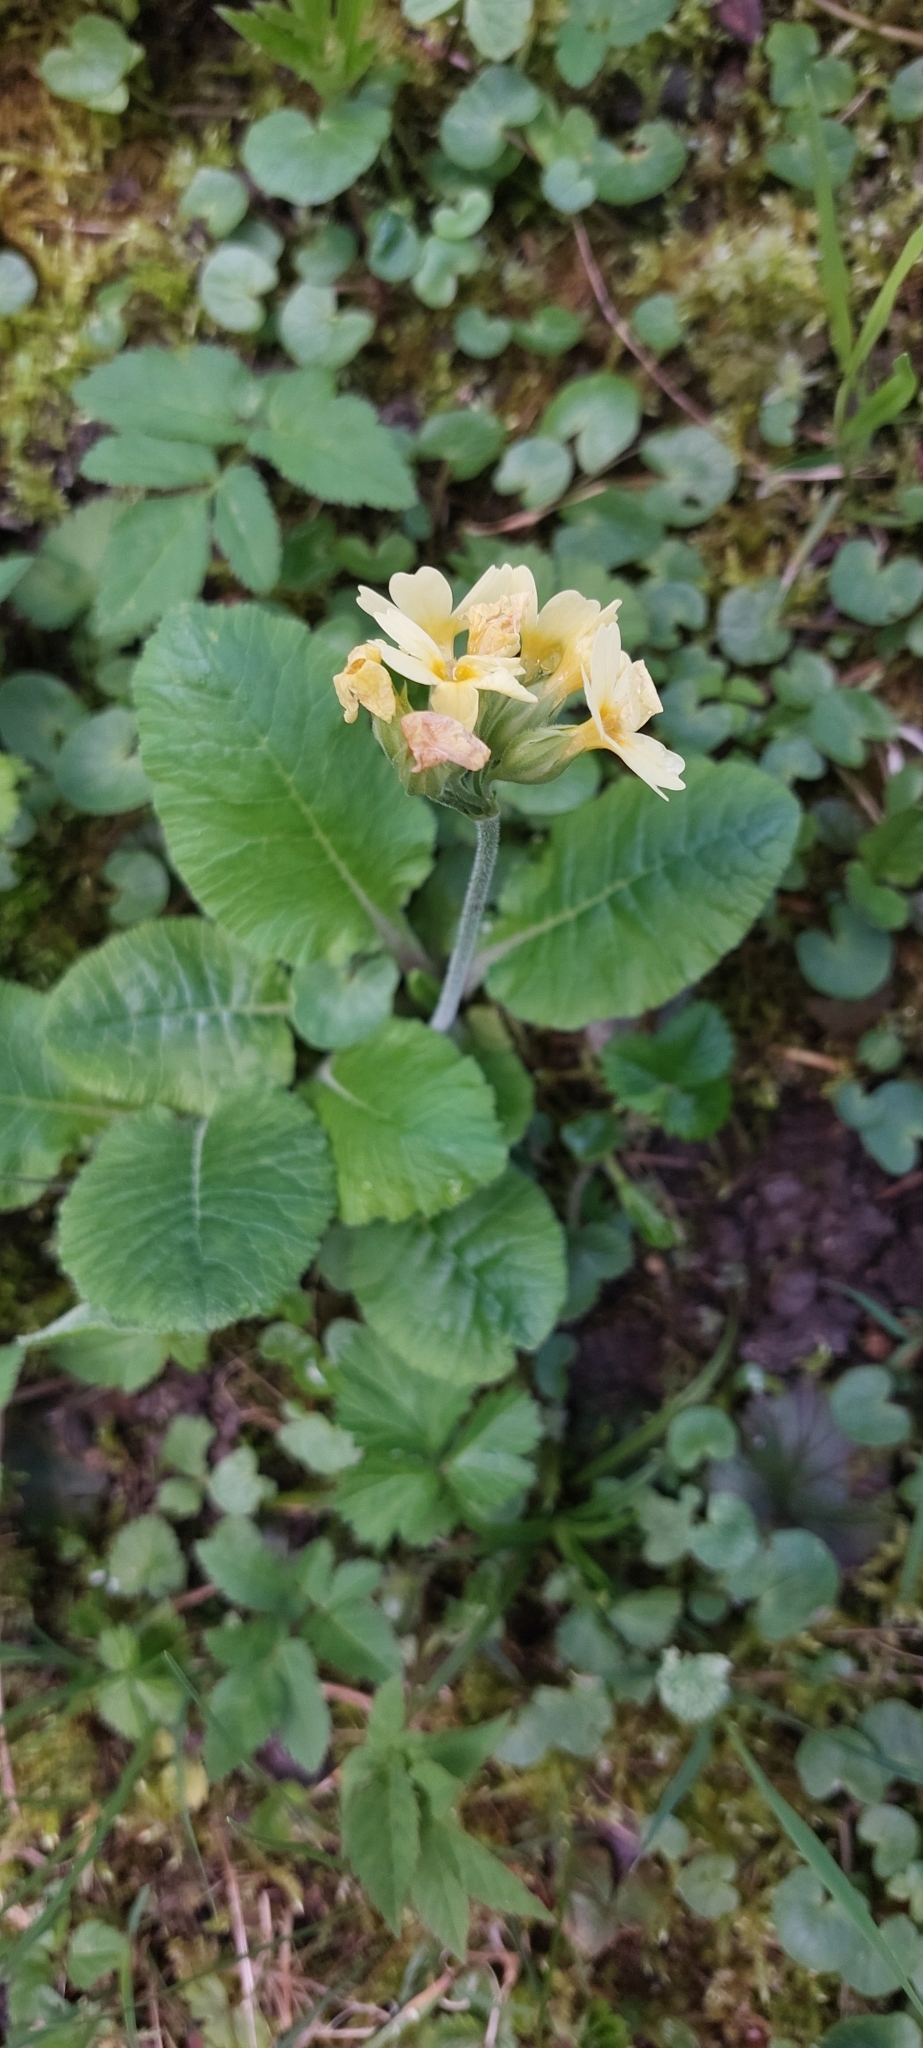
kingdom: Plantae
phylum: Tracheophyta
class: Magnoliopsida
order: Ericales
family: Primulaceae
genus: Primula
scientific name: Primula elatior
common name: Oxlip
